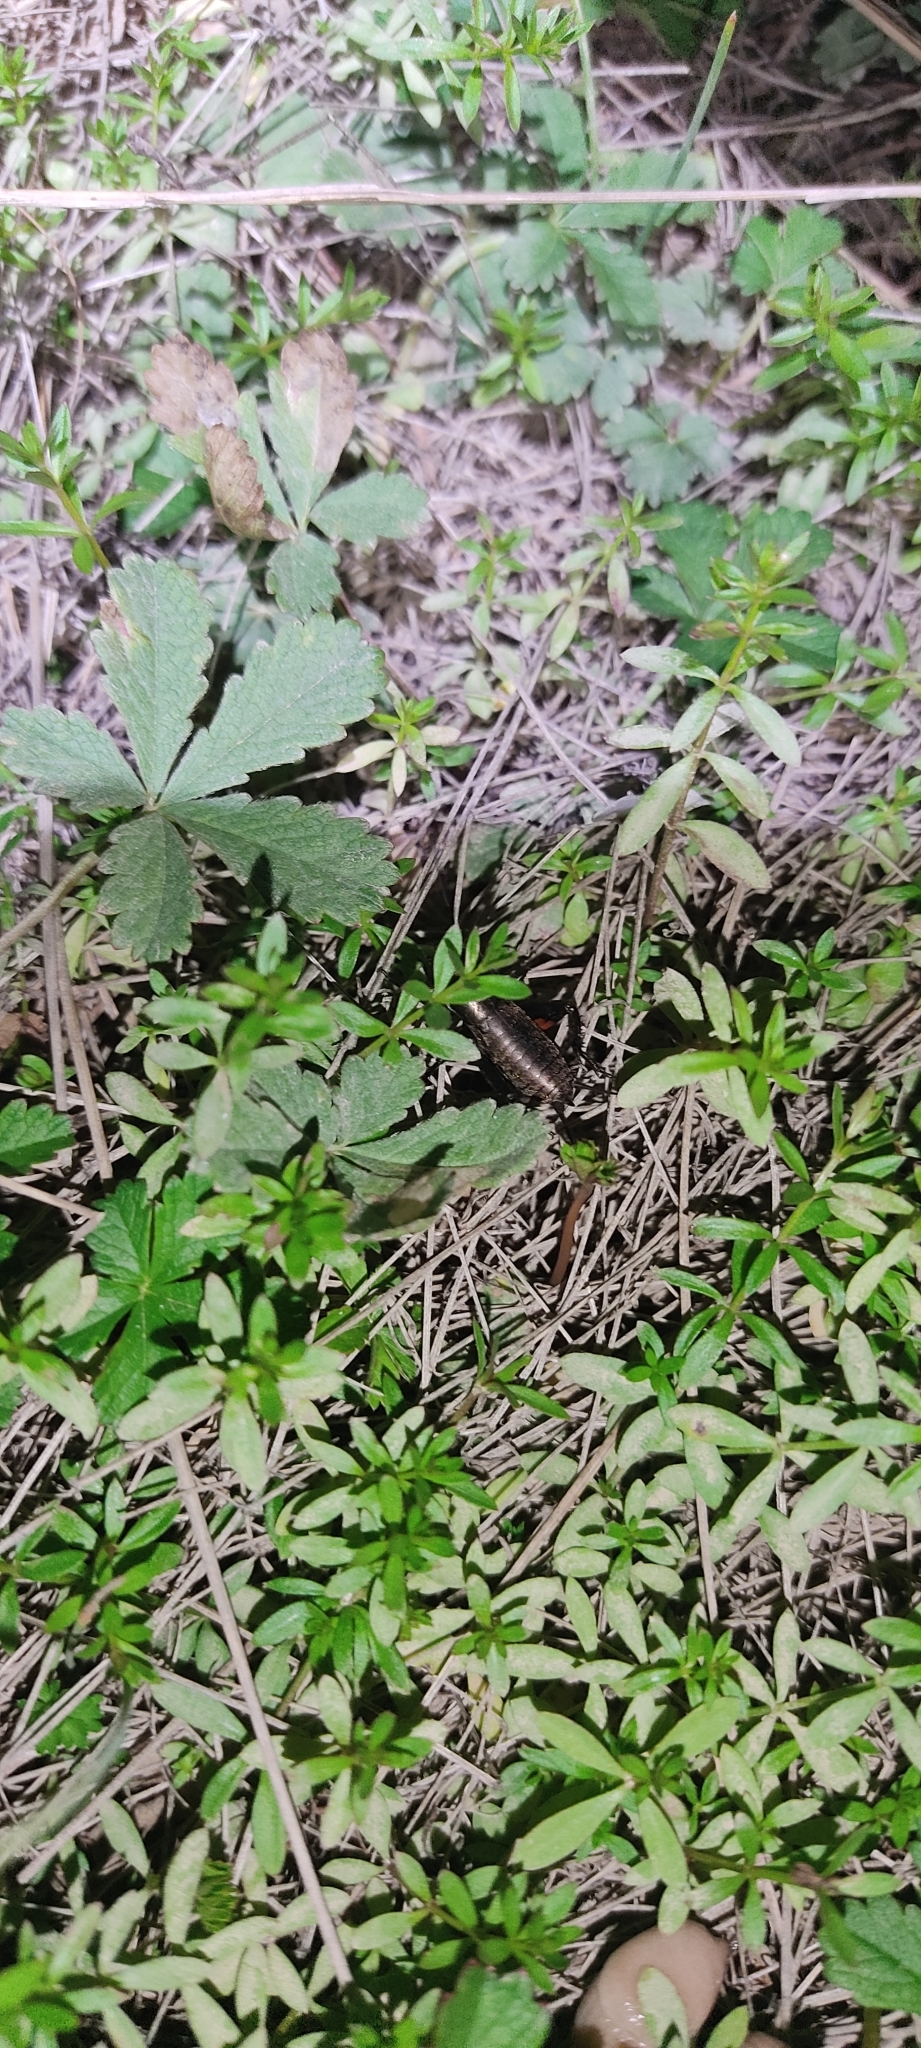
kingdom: Animalia
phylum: Arthropoda
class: Insecta
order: Orthoptera
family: Gryllidae
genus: Gryllus
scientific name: Gryllus campestris
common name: Field cricket
